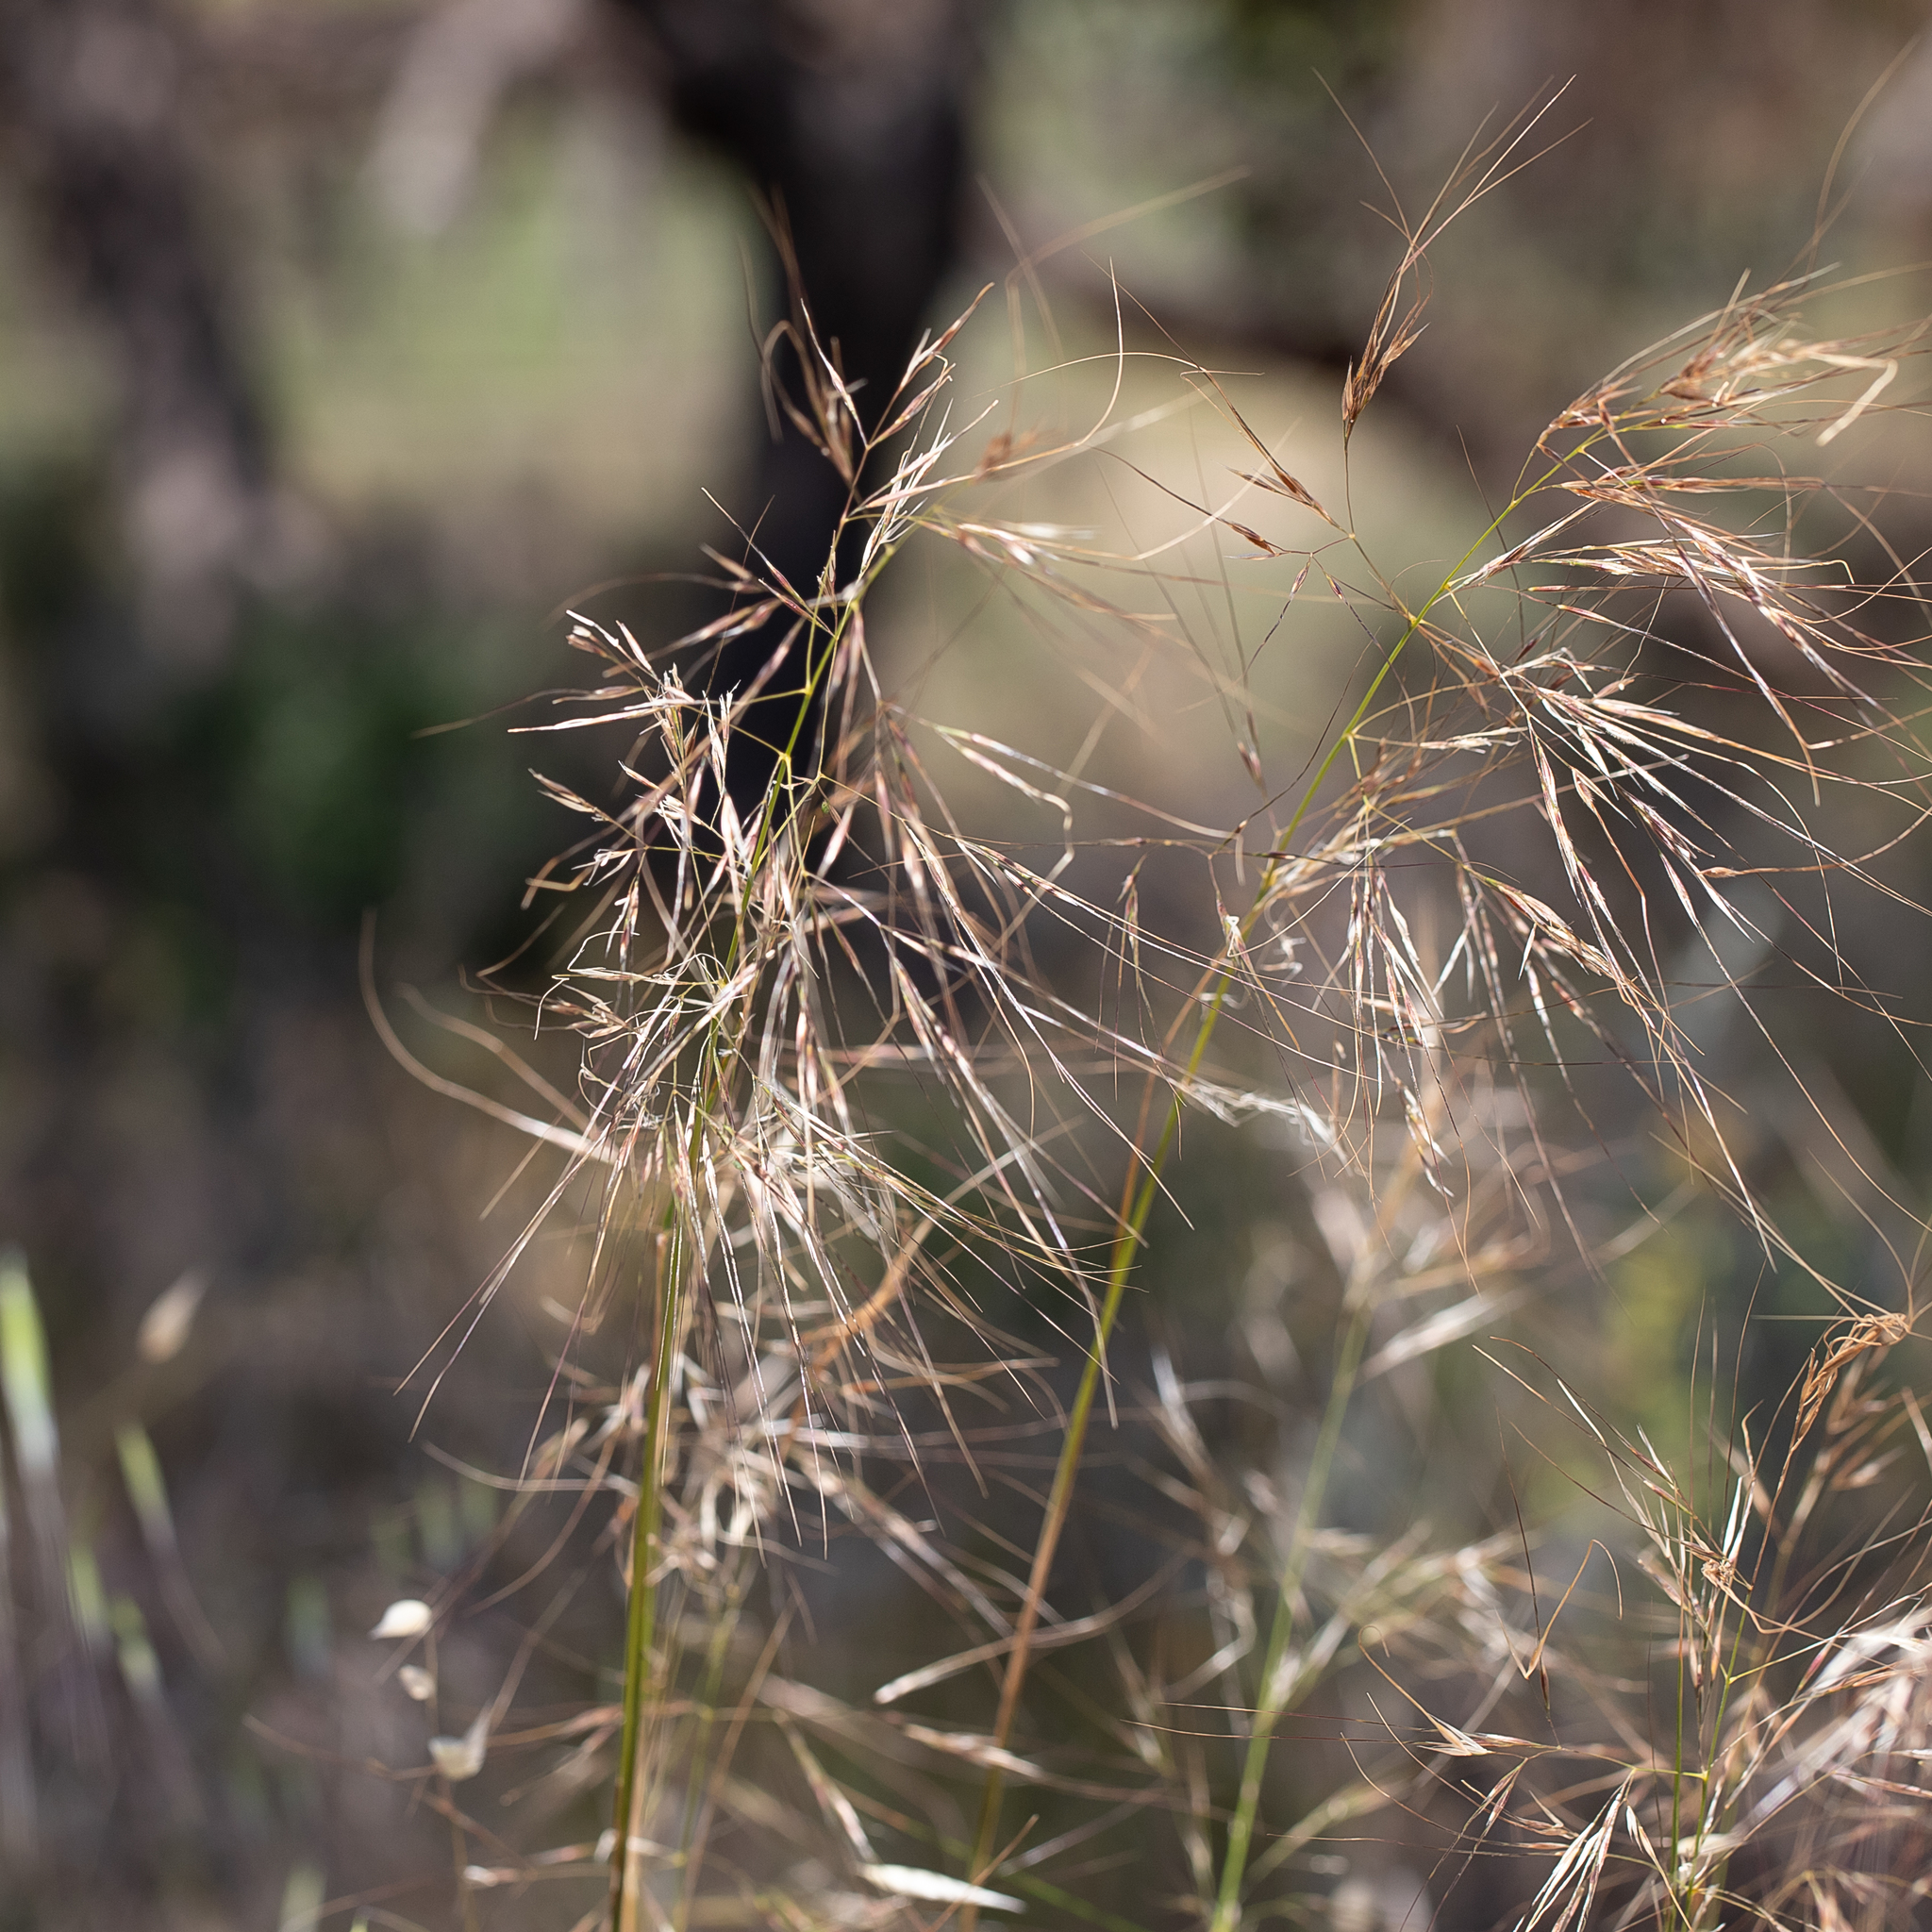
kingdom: Plantae
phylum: Tracheophyta
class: Liliopsida
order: Poales
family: Poaceae
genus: Austrostipa
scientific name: Austrostipa flavescens
